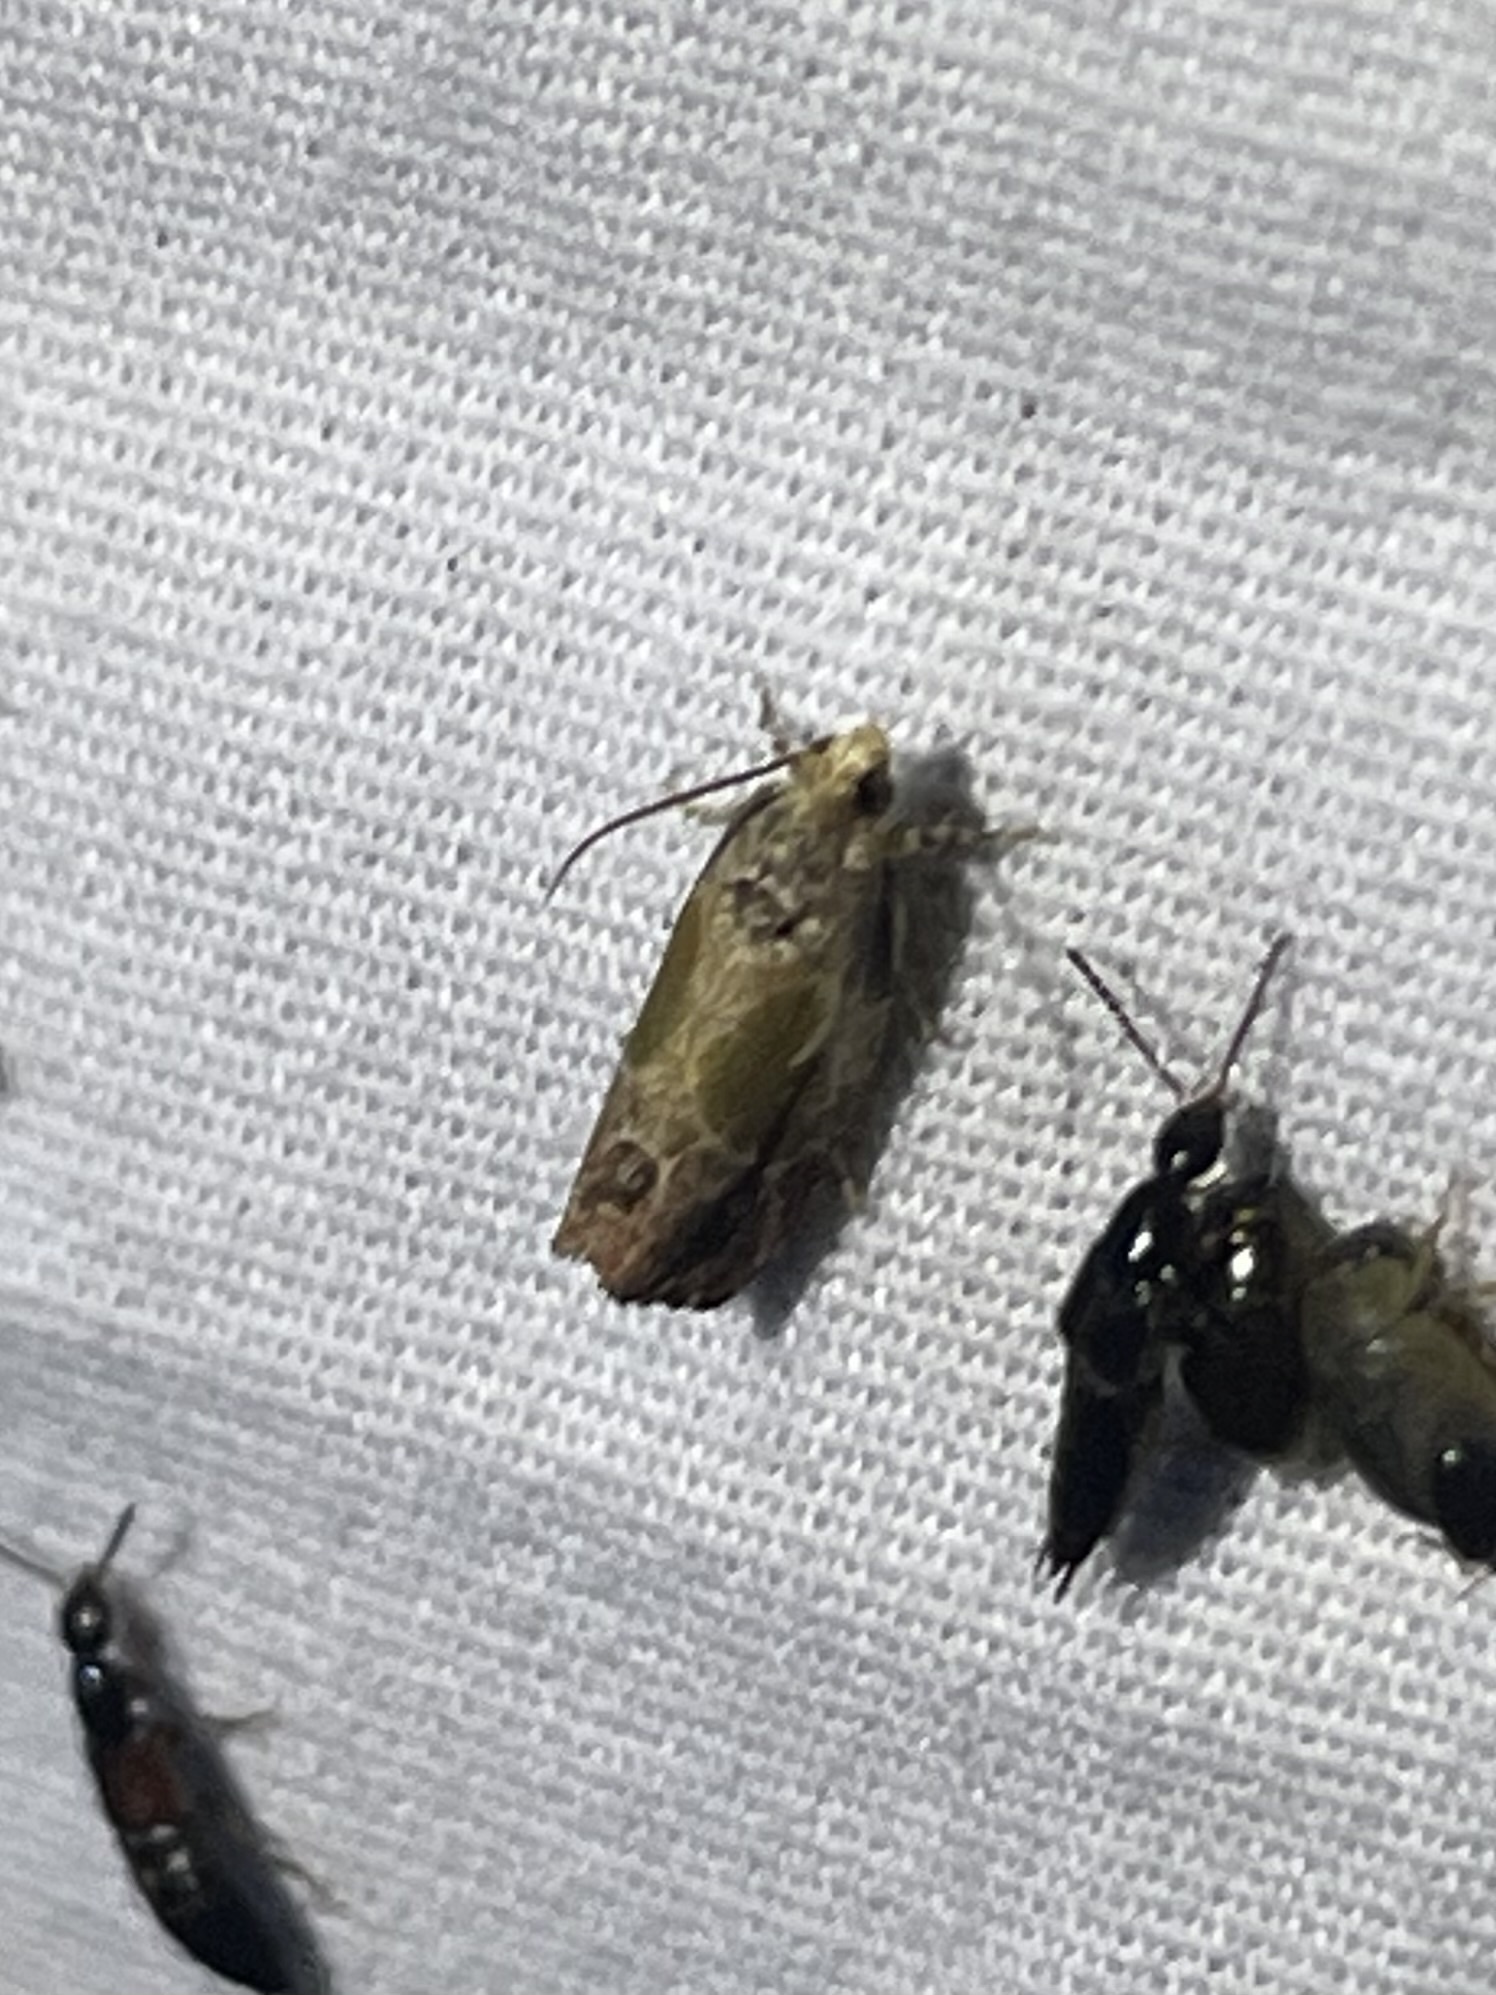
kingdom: Animalia
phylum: Arthropoda
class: Insecta
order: Lepidoptera
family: Tortricidae
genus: Eumarozia
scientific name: Eumarozia malachitana
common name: Sculptured moth
